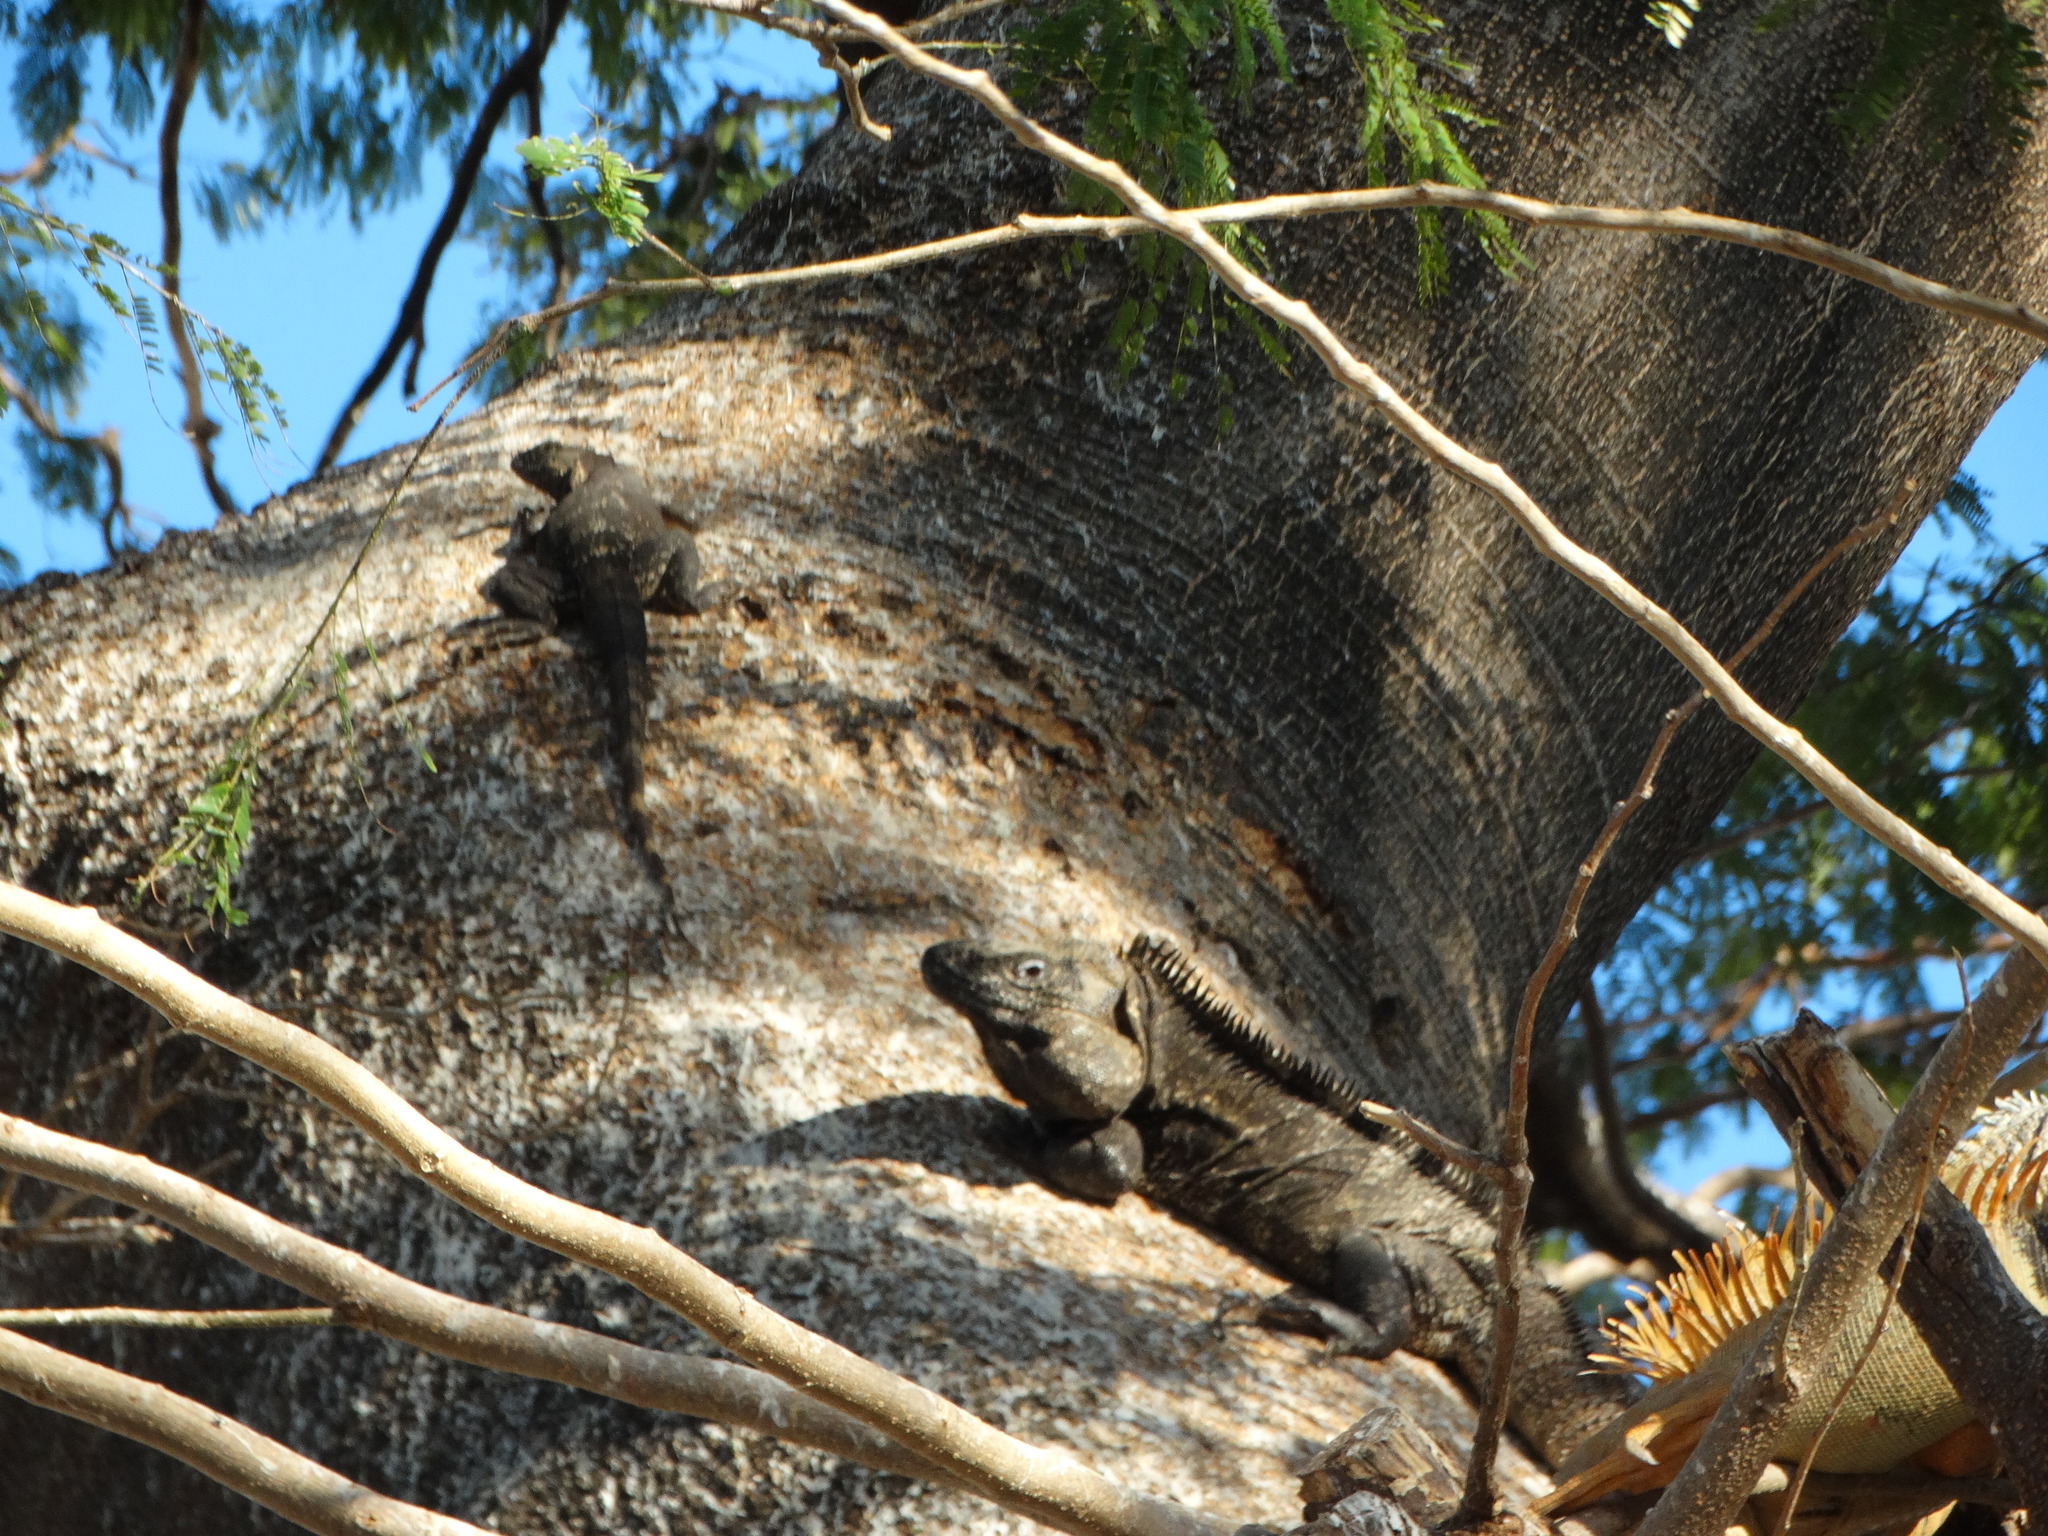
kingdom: Animalia
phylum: Chordata
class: Squamata
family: Iguanidae
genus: Ctenosaura
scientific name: Ctenosaura pectinata
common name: Guerreran spiny-tailed iguana
